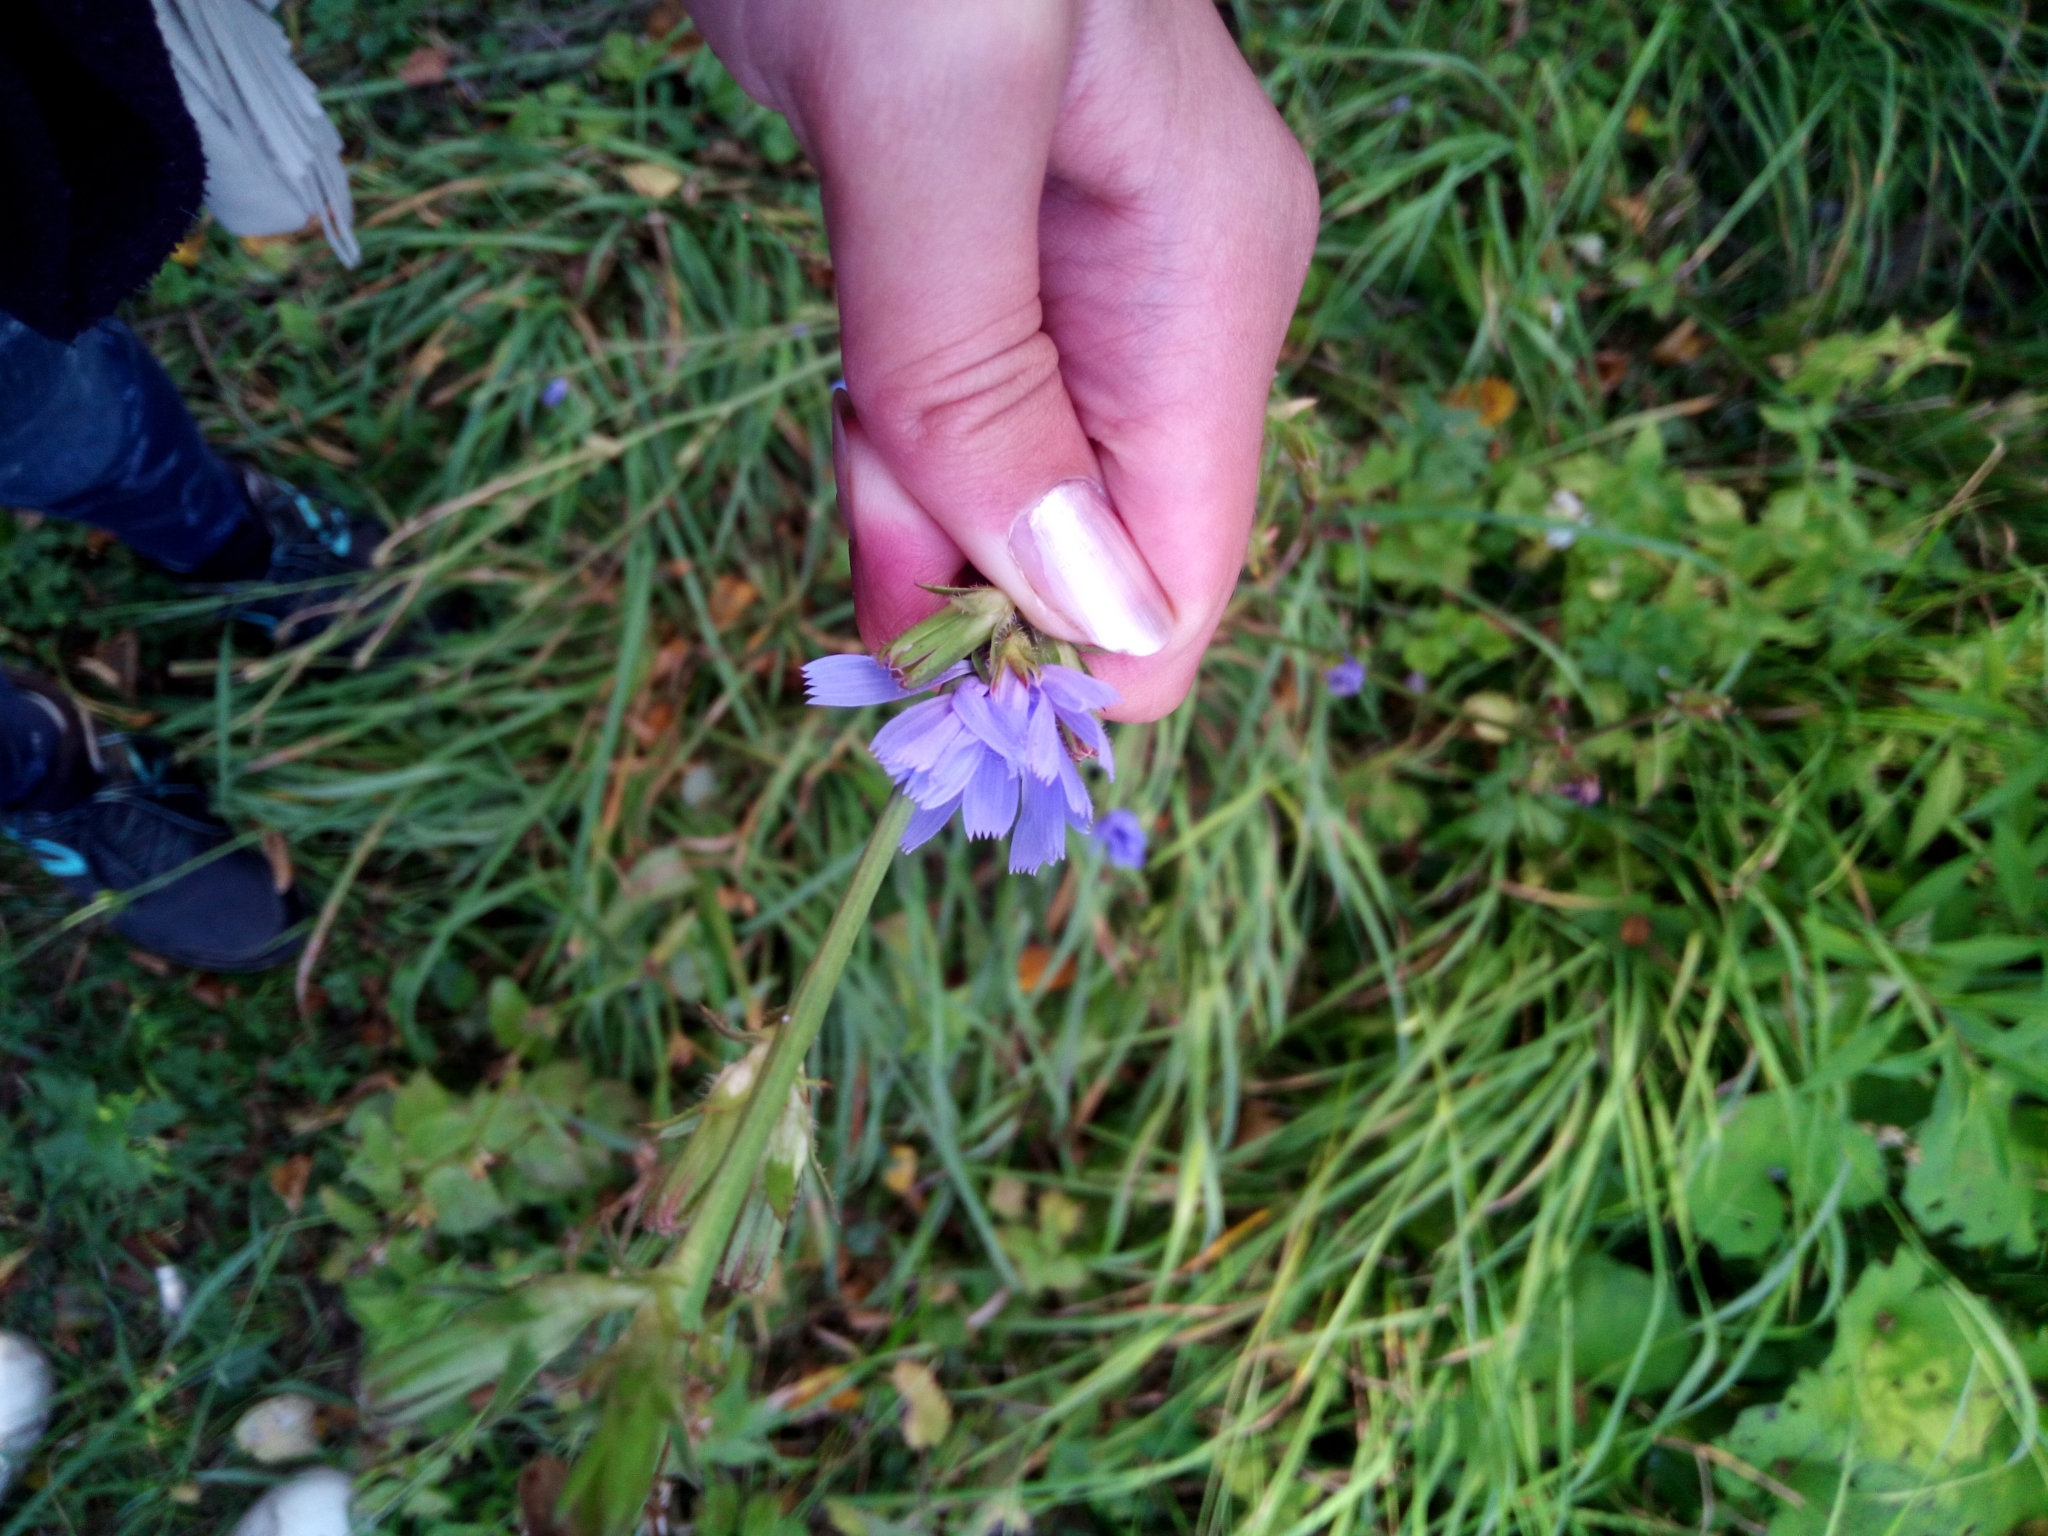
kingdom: Plantae
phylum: Tracheophyta
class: Magnoliopsida
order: Asterales
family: Asteraceae
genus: Cichorium
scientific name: Cichorium intybus
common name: Chicory
